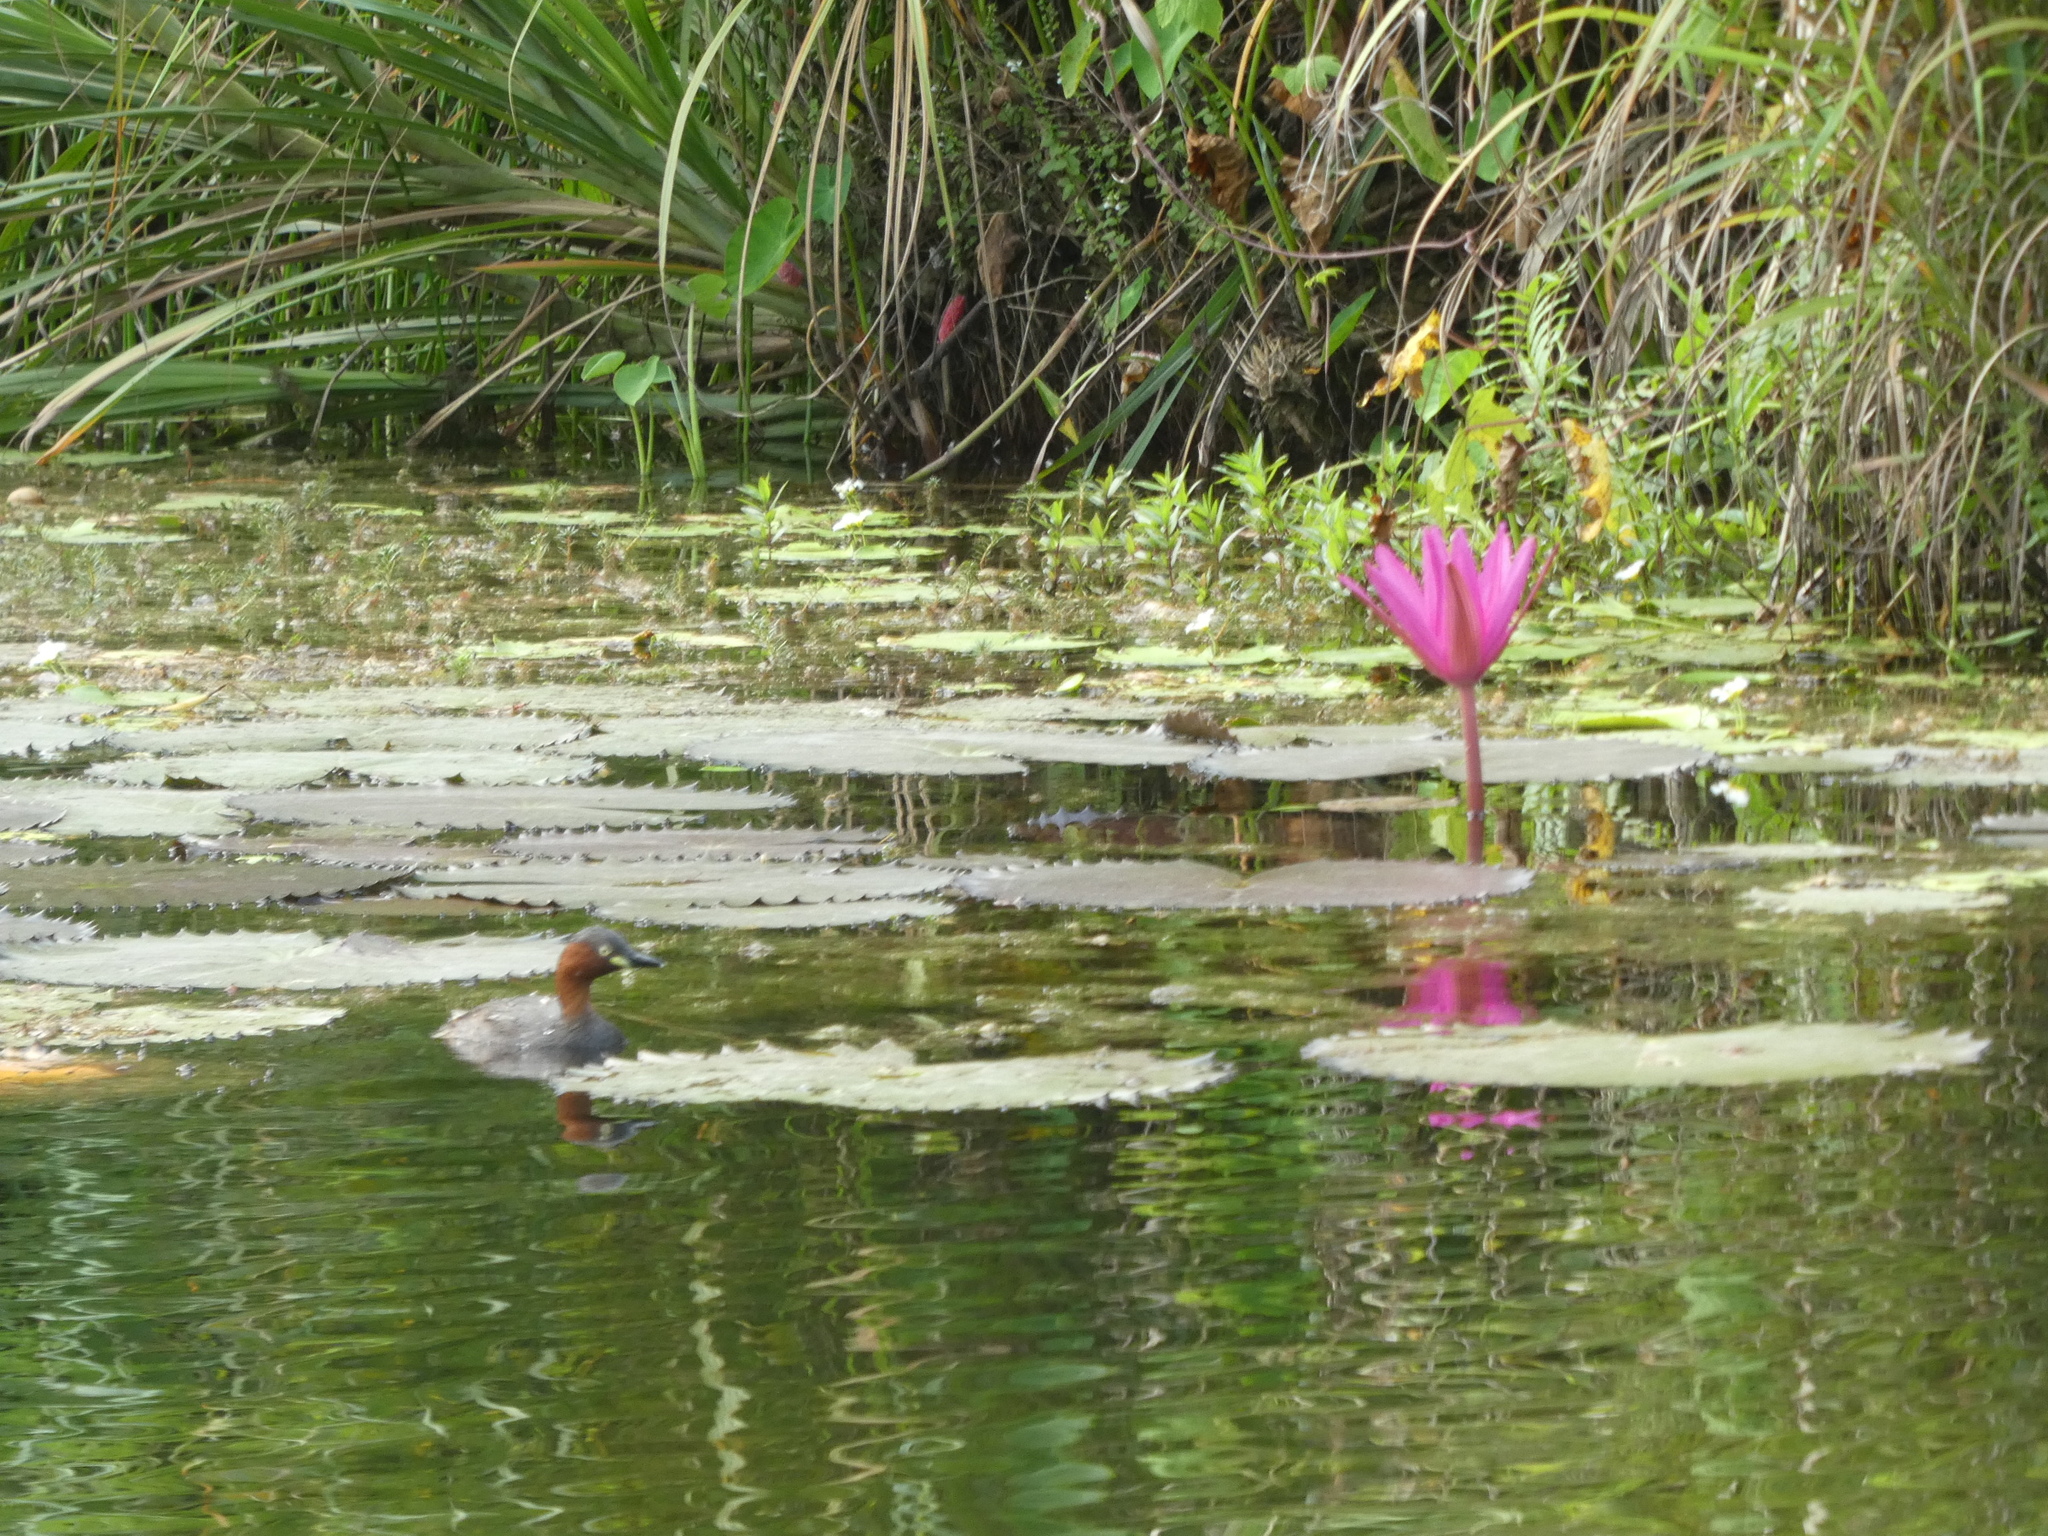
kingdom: Animalia
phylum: Chordata
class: Aves
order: Podicipediformes
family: Podicipedidae
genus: Tachybaptus
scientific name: Tachybaptus ruficollis
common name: Little grebe
